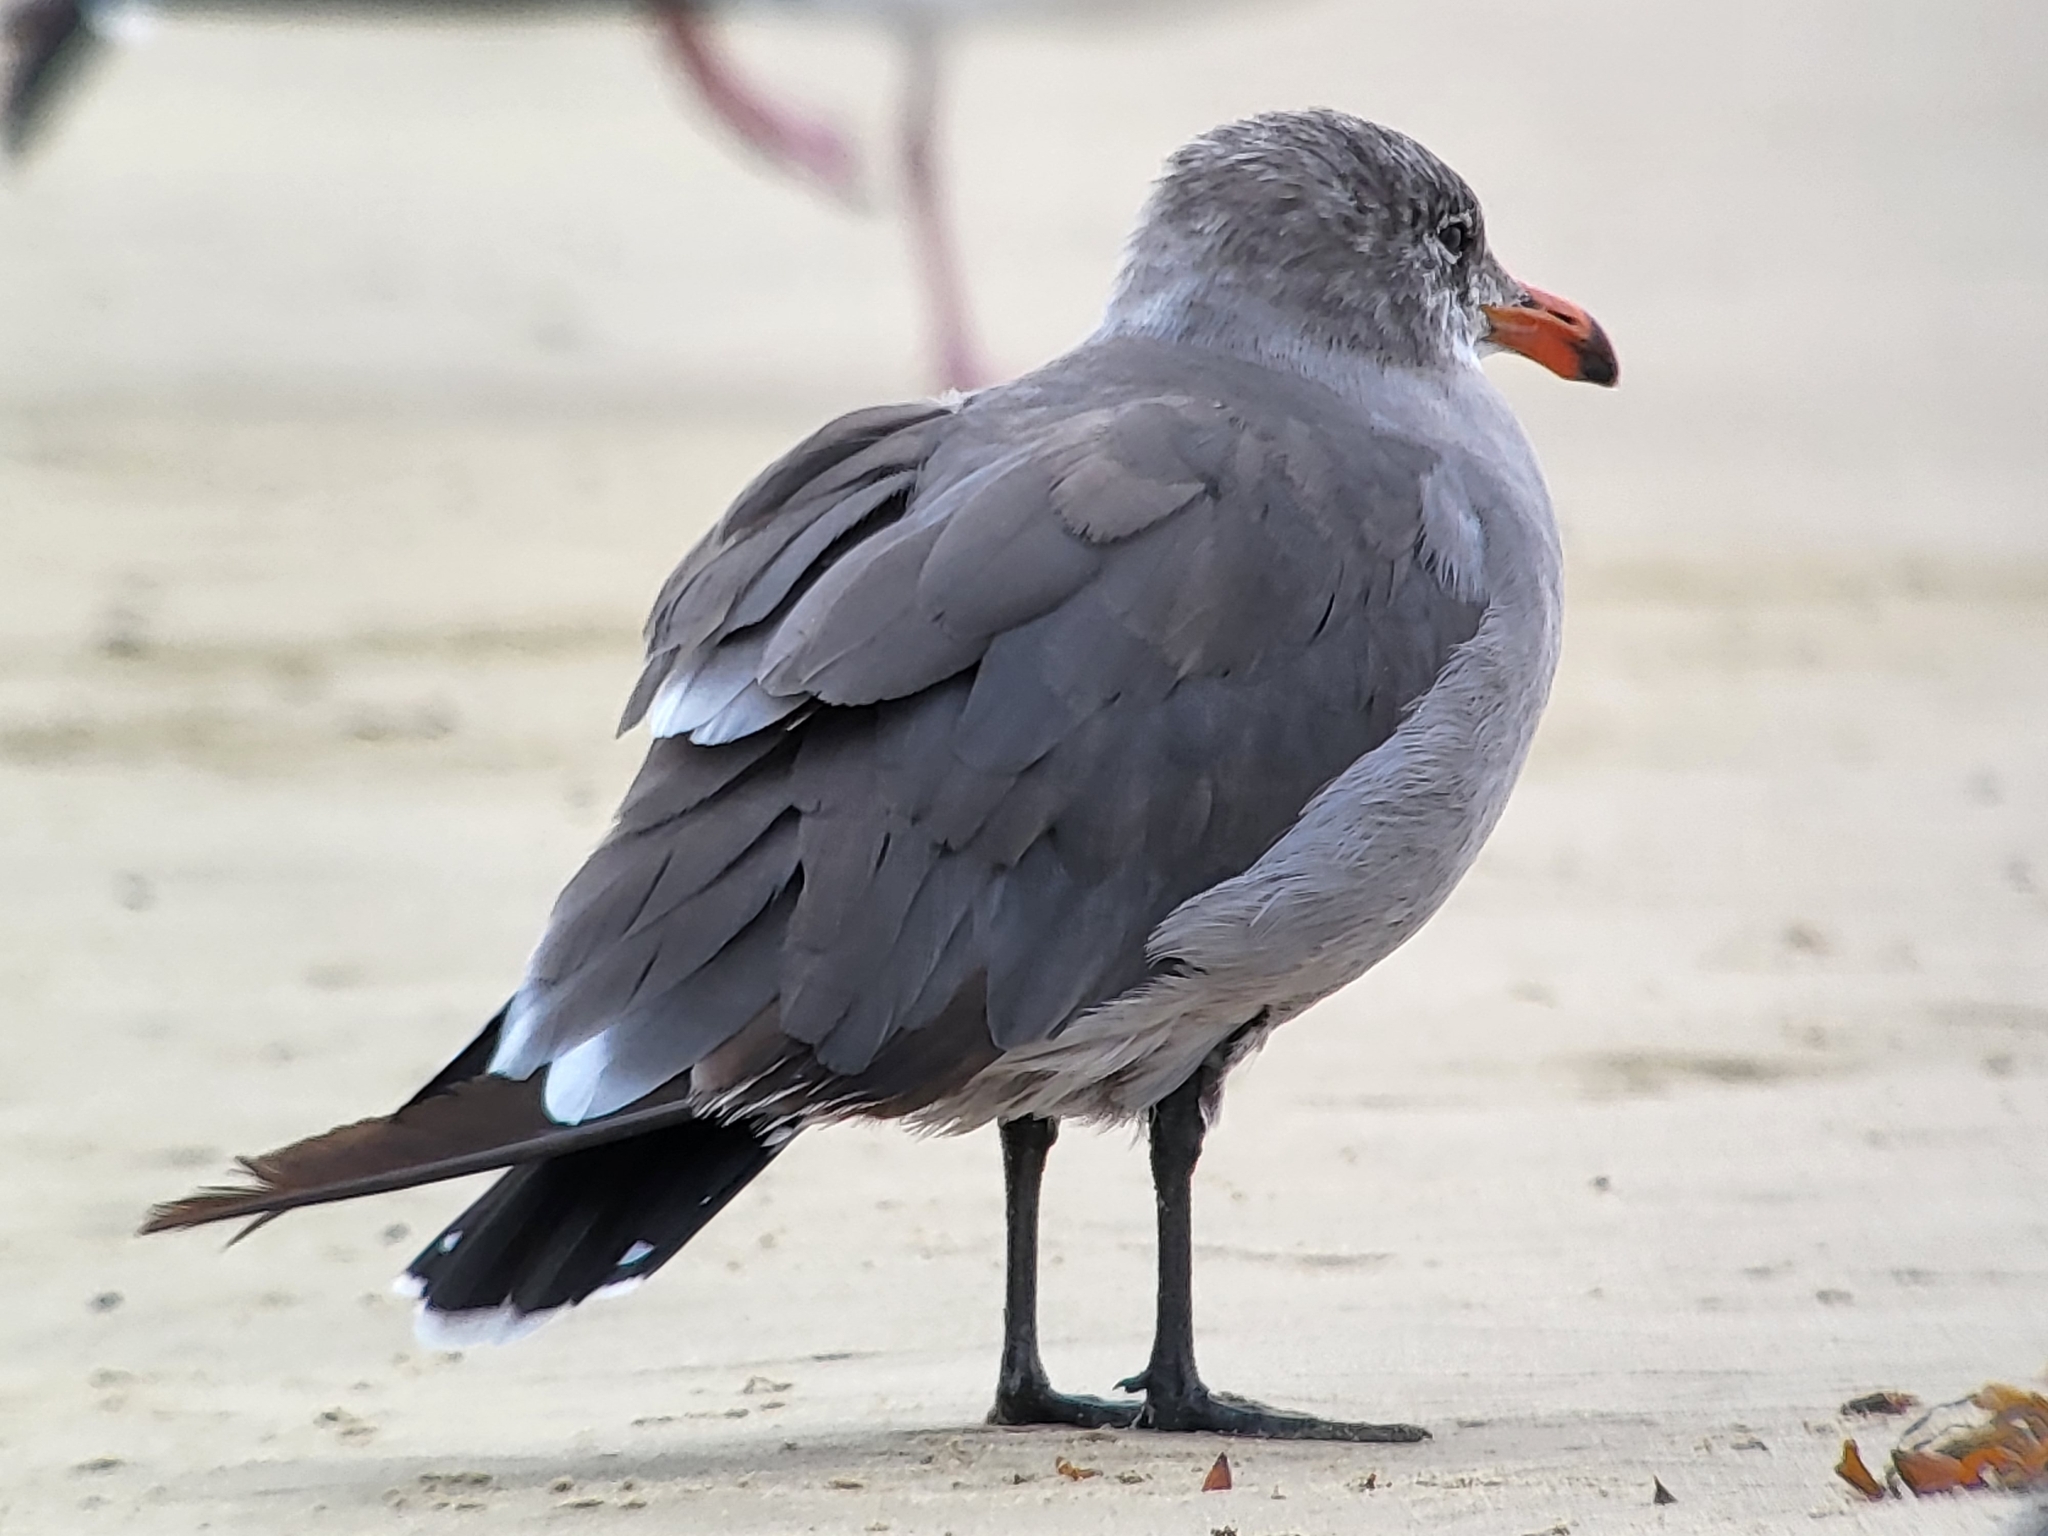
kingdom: Animalia
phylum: Chordata
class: Aves
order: Charadriiformes
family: Laridae
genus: Larus
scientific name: Larus heermanni
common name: Heermann's gull
